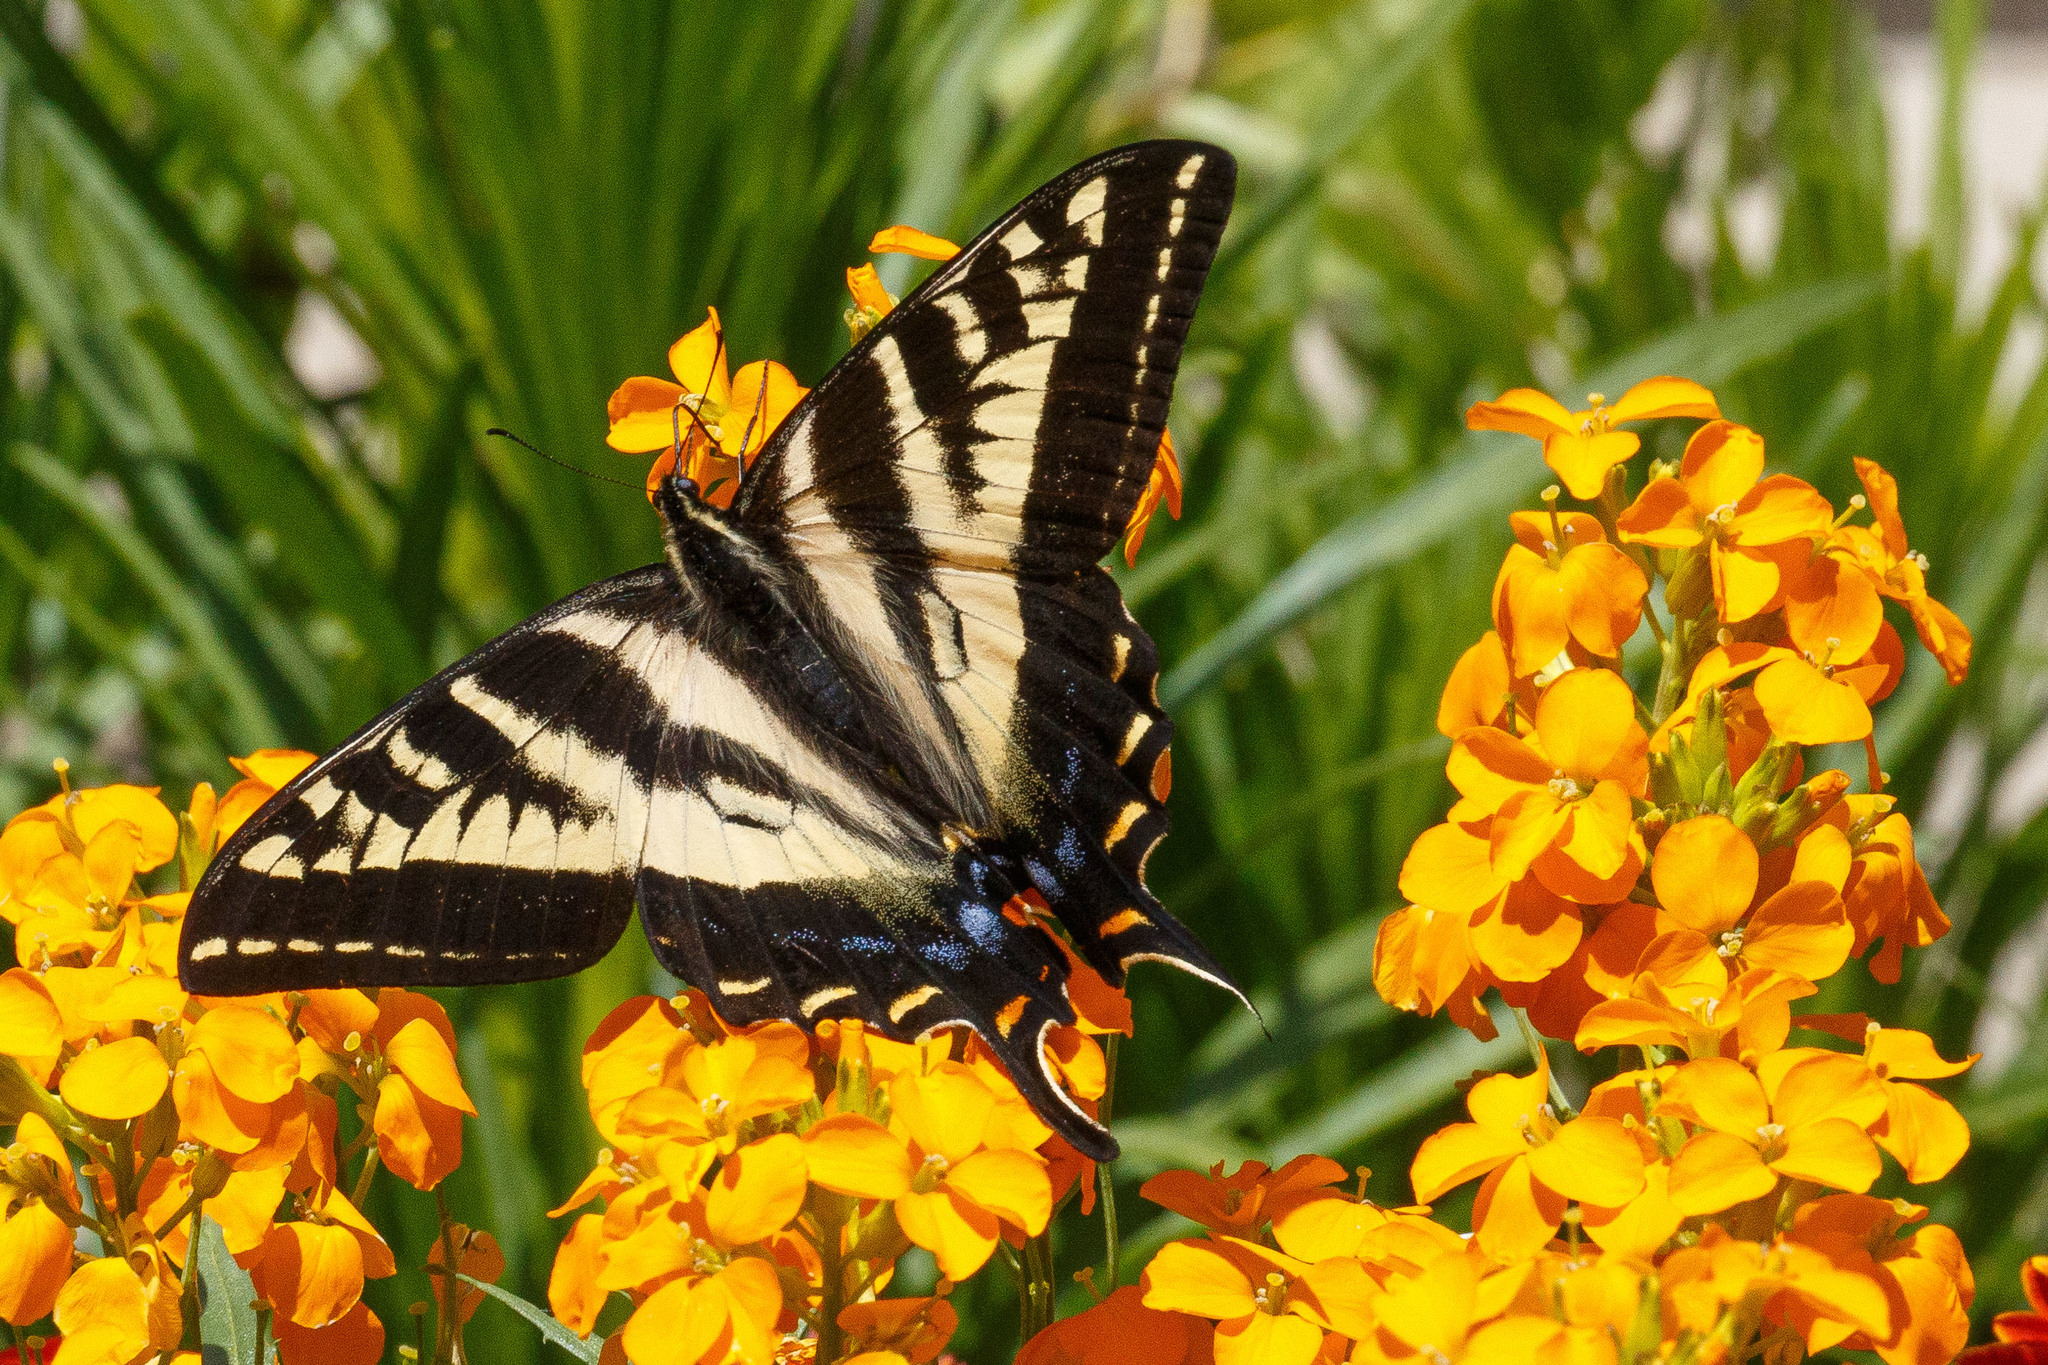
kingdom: Animalia
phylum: Arthropoda
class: Insecta
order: Lepidoptera
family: Papilionidae
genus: Papilio
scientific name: Papilio eurymedon
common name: Pale tiger swallowtail
